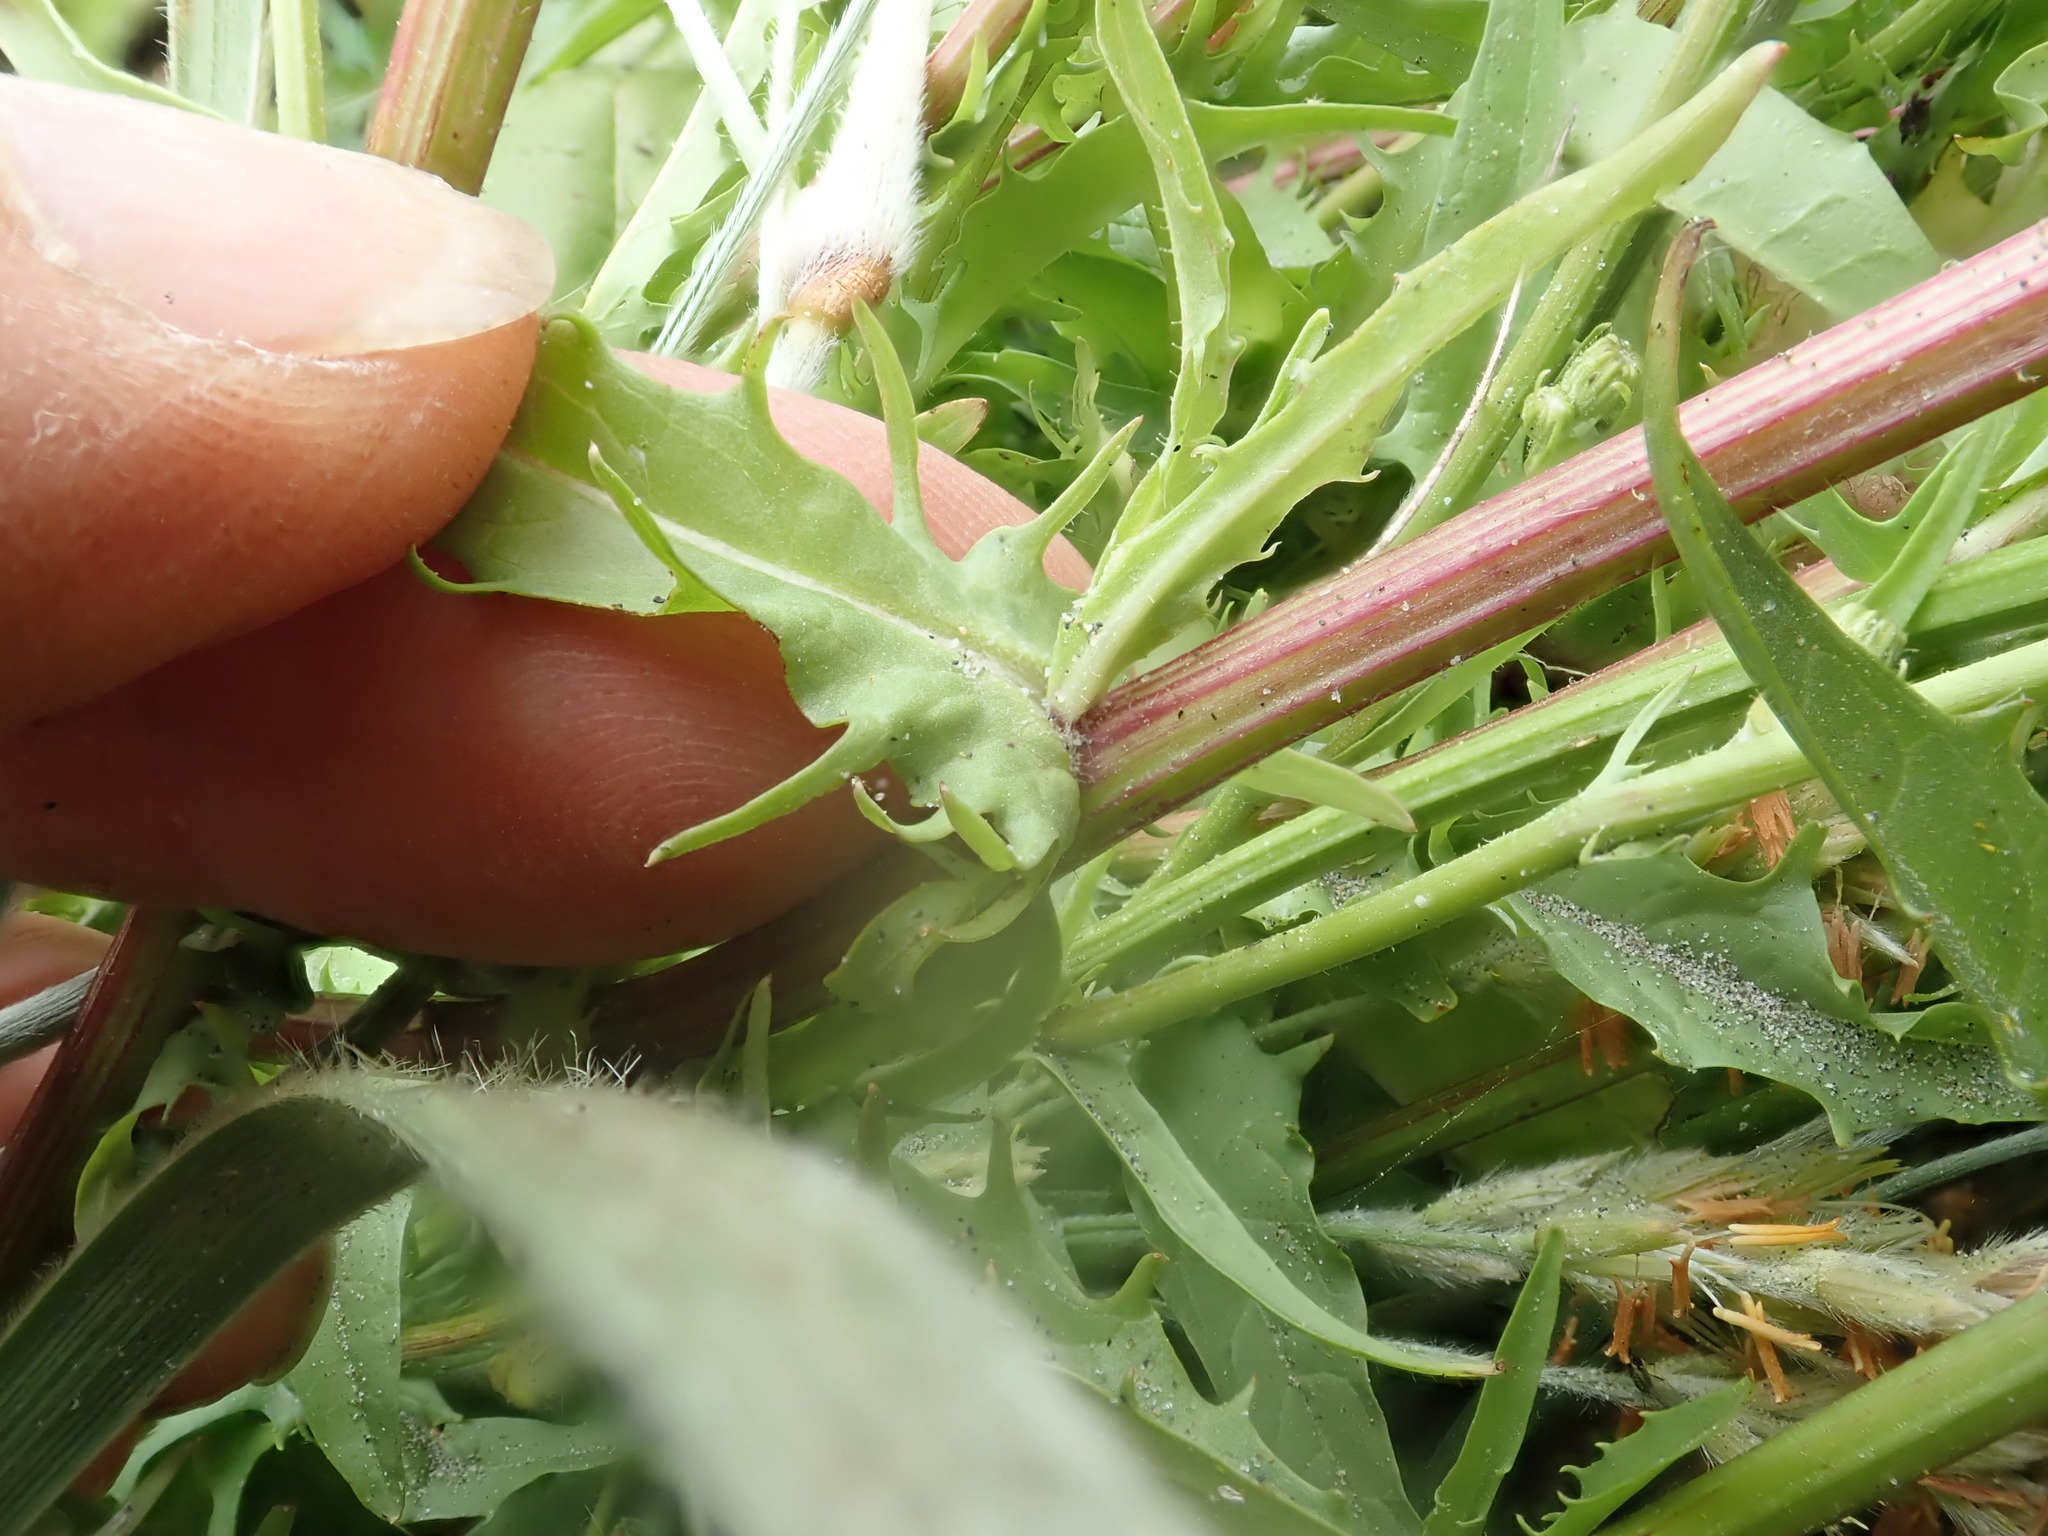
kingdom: Plantae
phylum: Tracheophyta
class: Magnoliopsida
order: Asterales
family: Asteraceae
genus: Crepis
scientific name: Crepis capillaris
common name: Smooth hawksbeard
